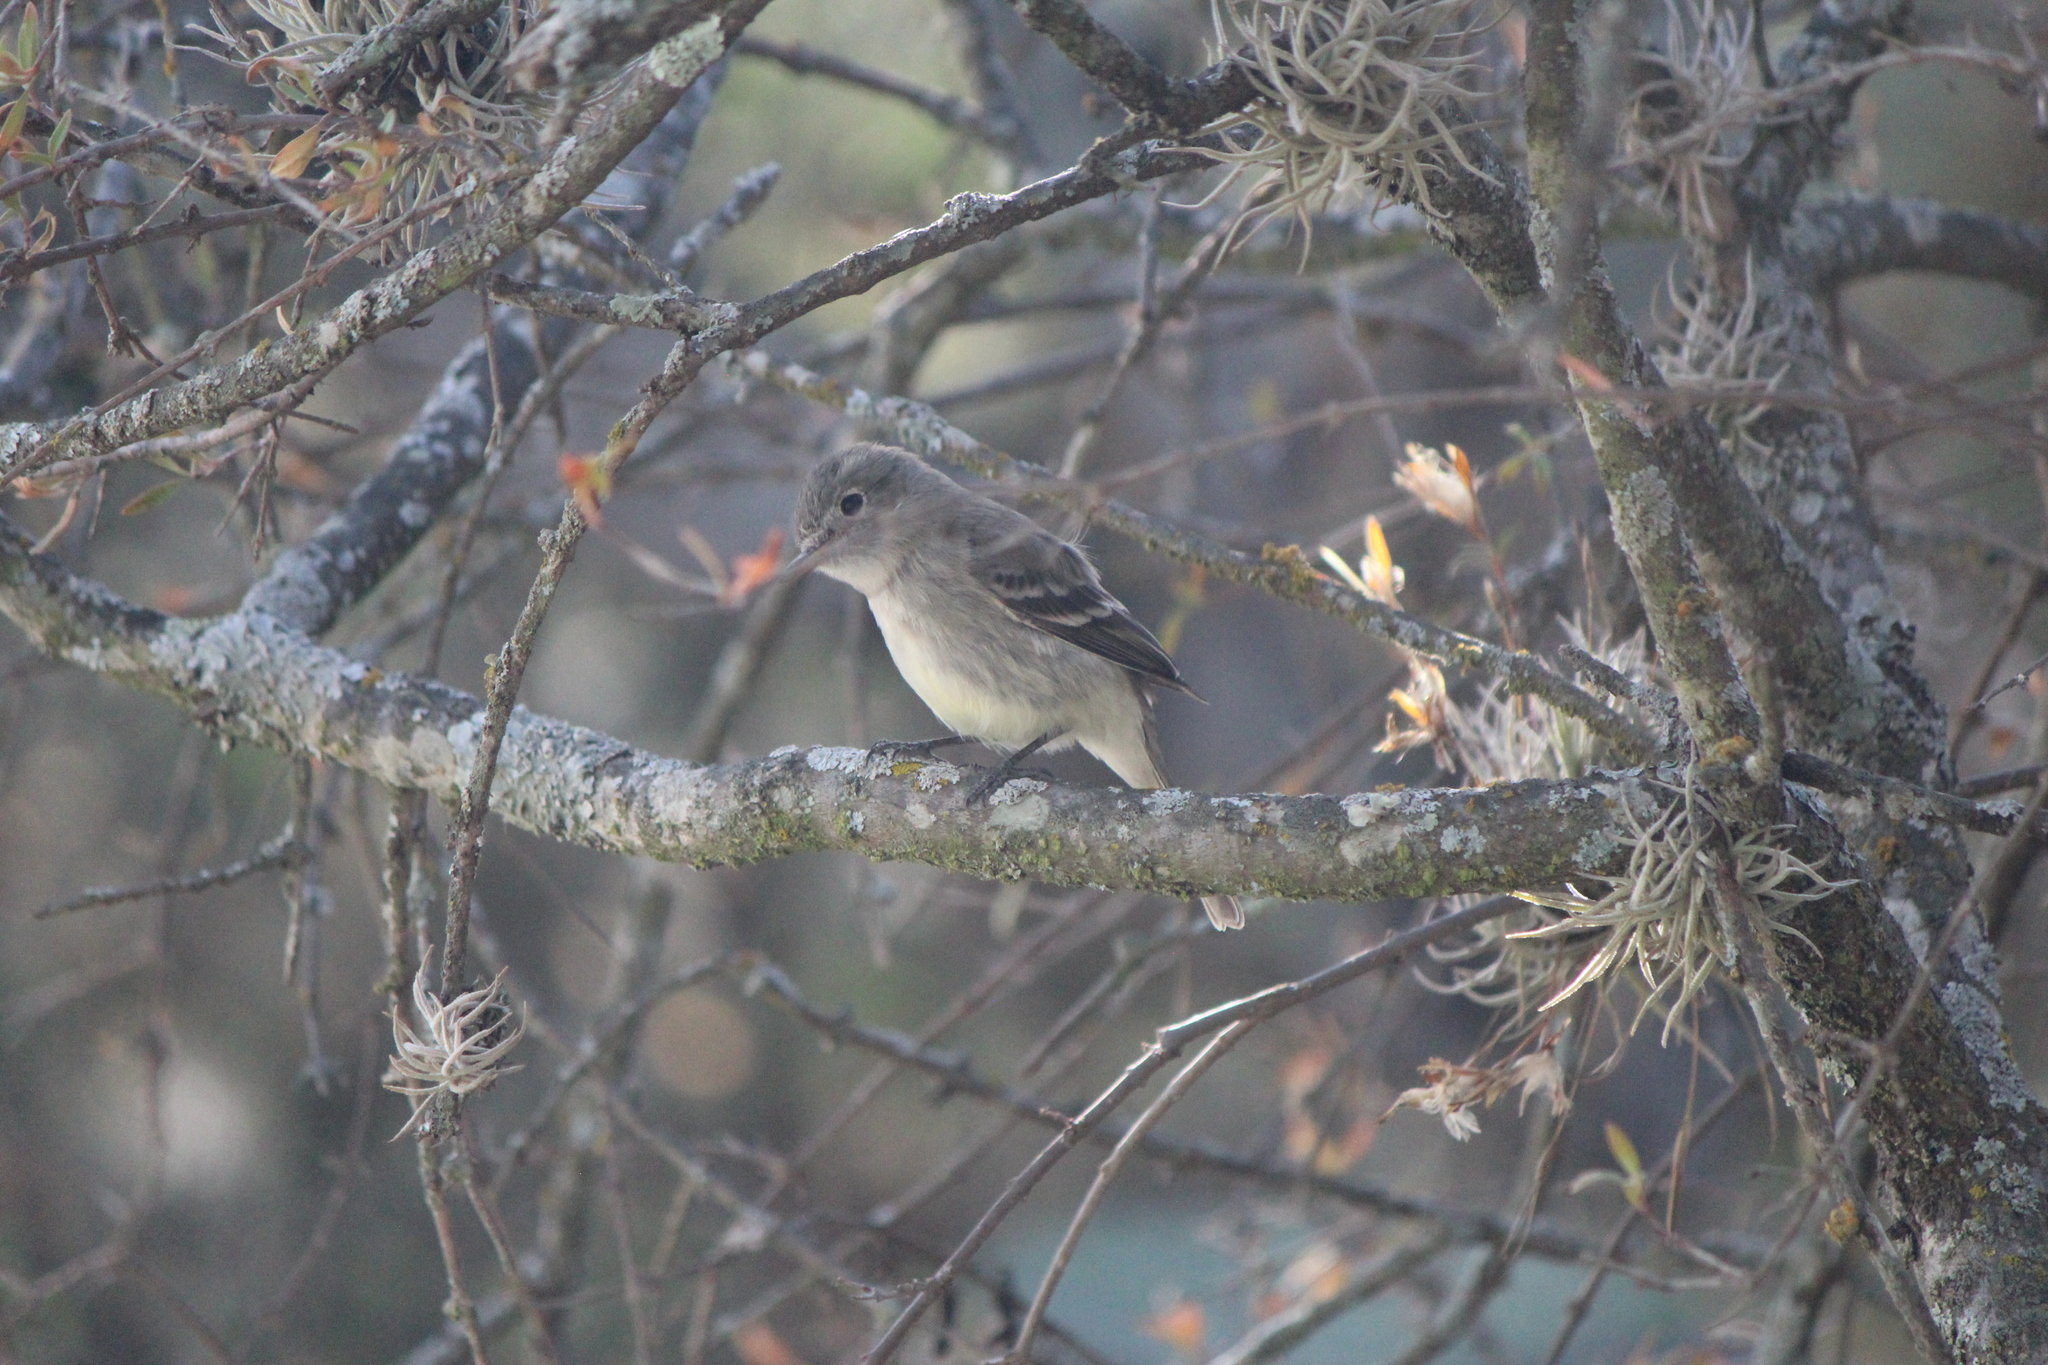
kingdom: Animalia
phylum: Chordata
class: Aves
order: Passeriformes
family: Tyrannidae
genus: Empidonax
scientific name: Empidonax wrightii
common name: Gray flycatcher
